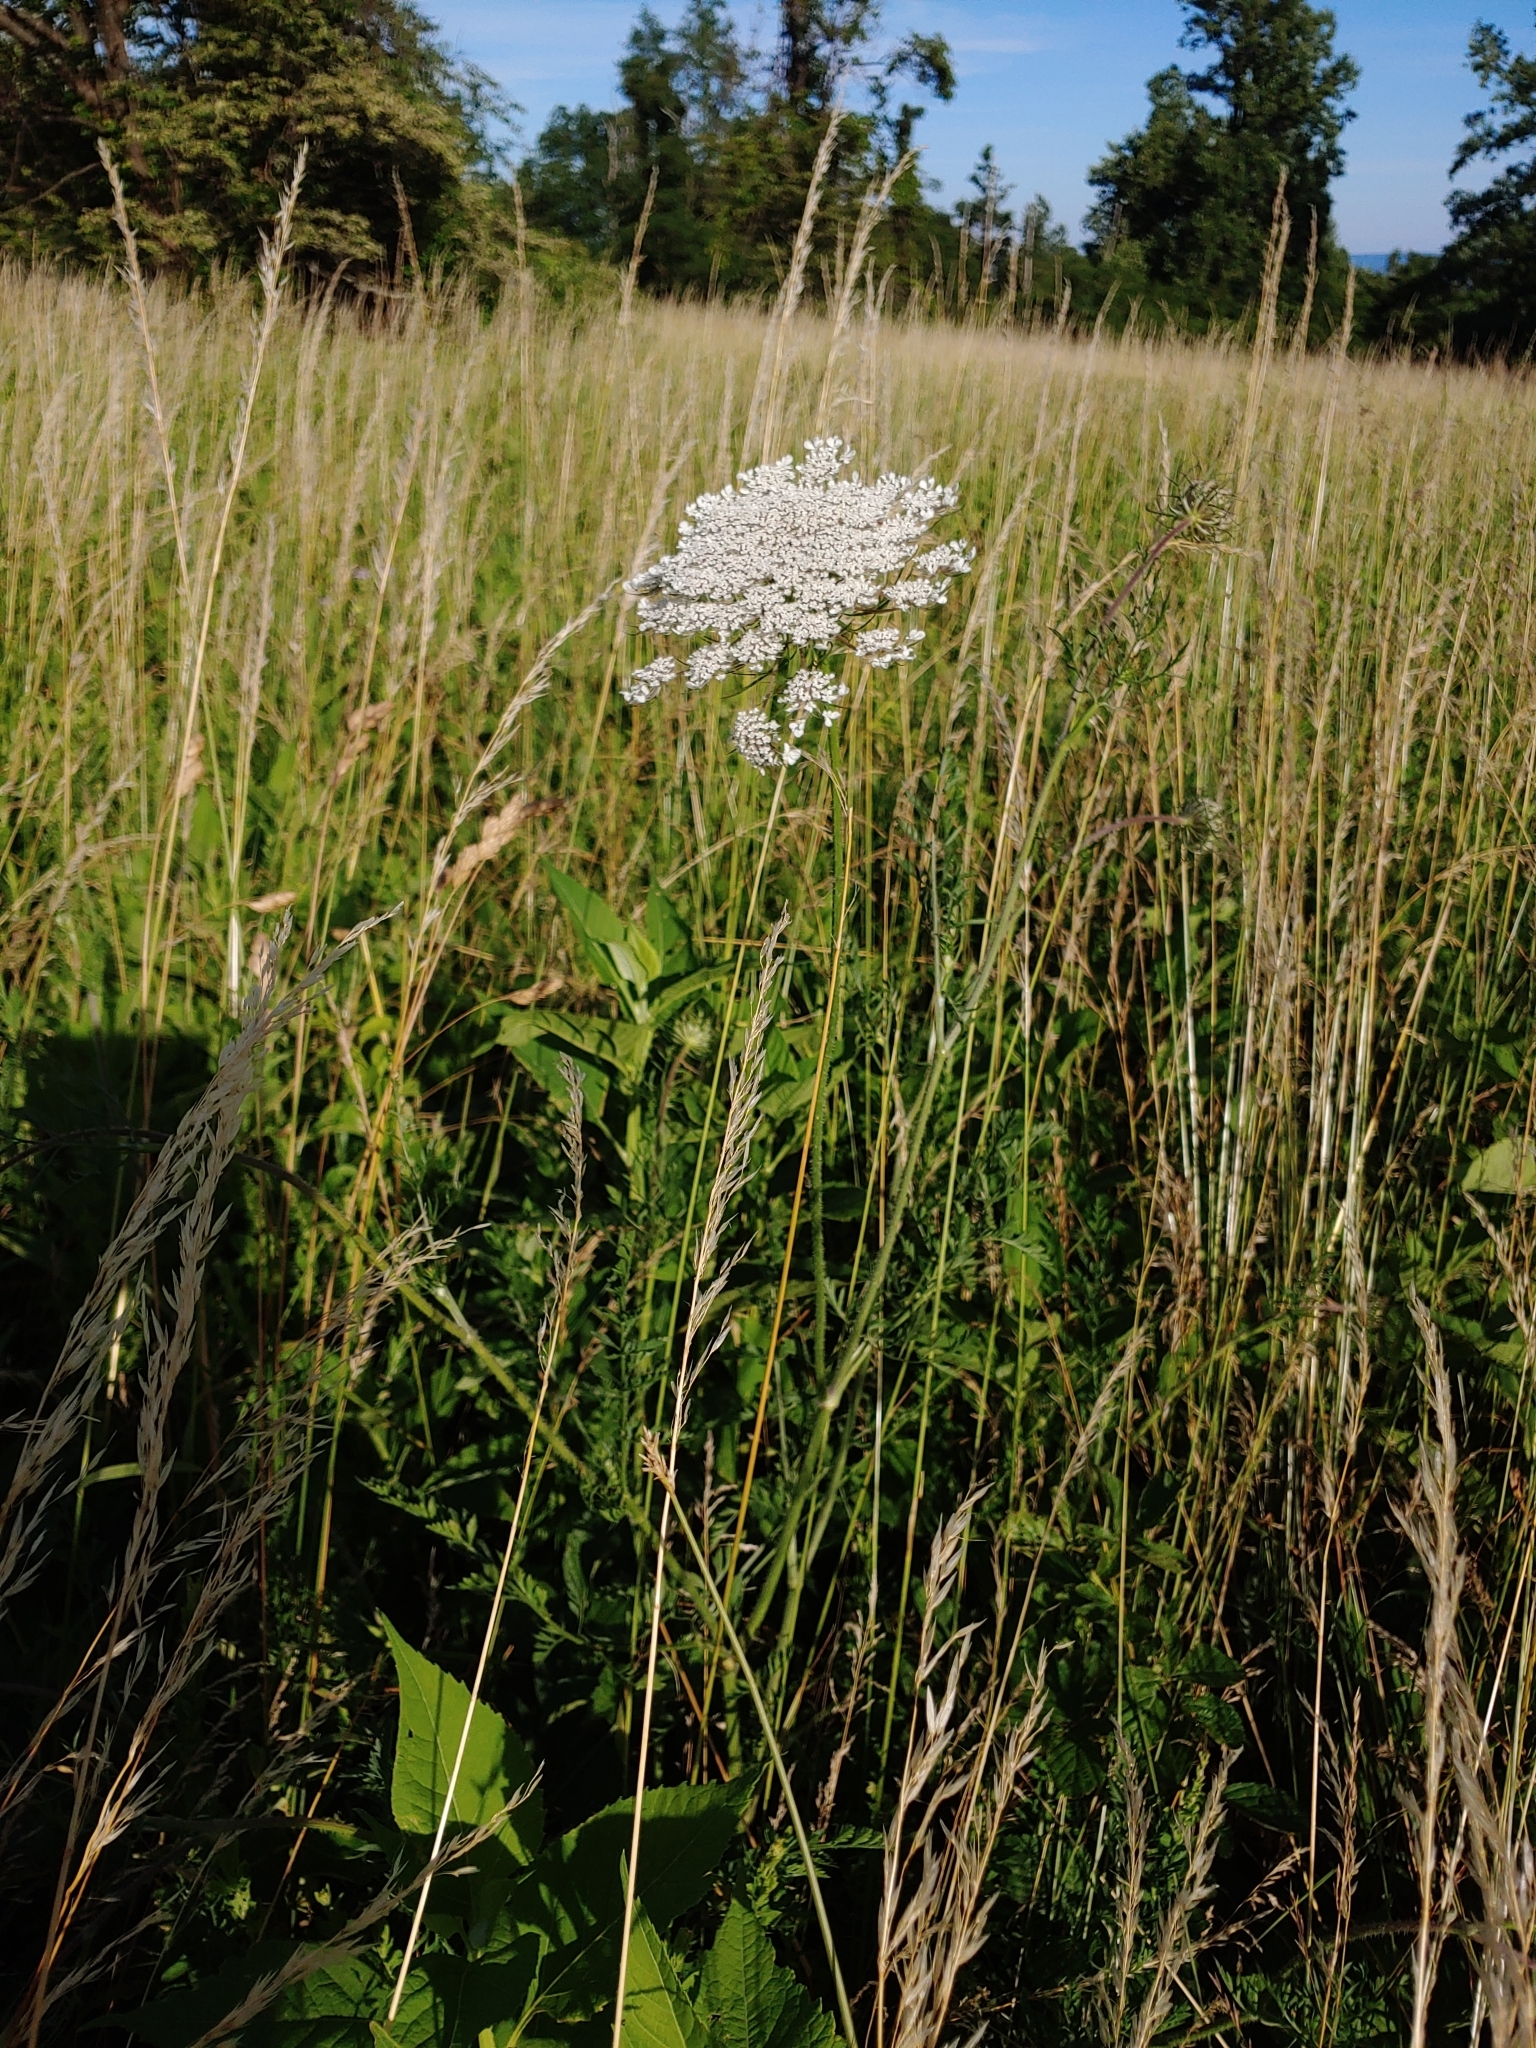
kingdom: Plantae
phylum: Tracheophyta
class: Magnoliopsida
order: Apiales
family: Apiaceae
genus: Daucus
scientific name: Daucus carota
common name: Wild carrot
